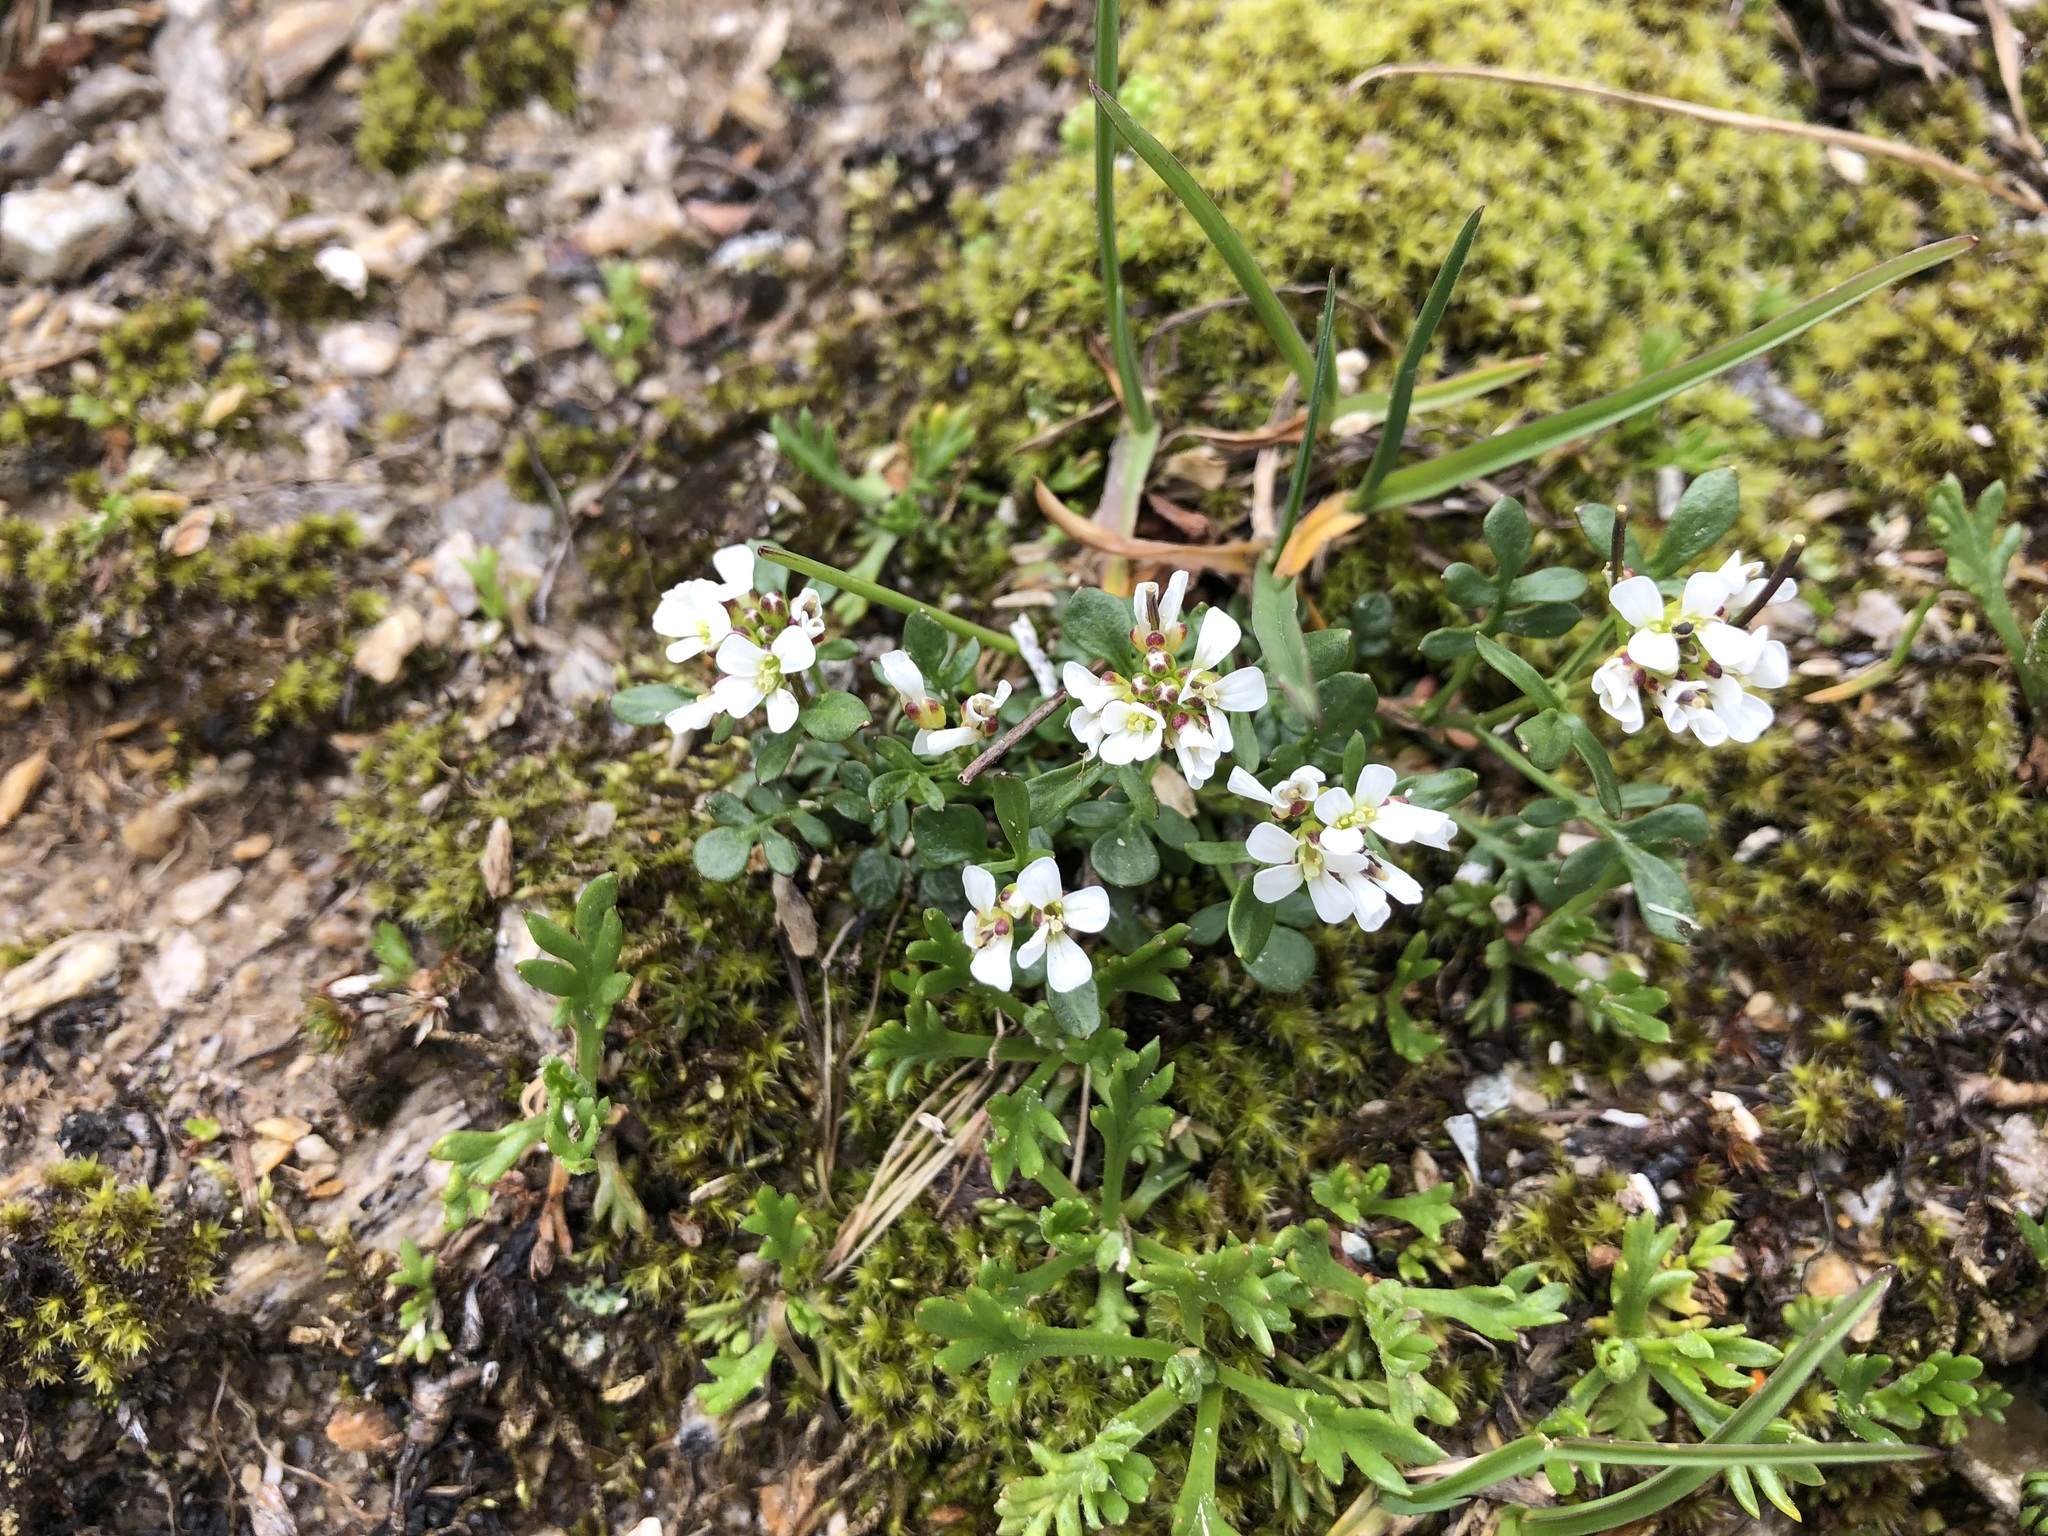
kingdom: Plantae
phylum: Tracheophyta
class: Magnoliopsida
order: Brassicales
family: Brassicaceae
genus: Cardamine
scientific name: Cardamine resedifolia
